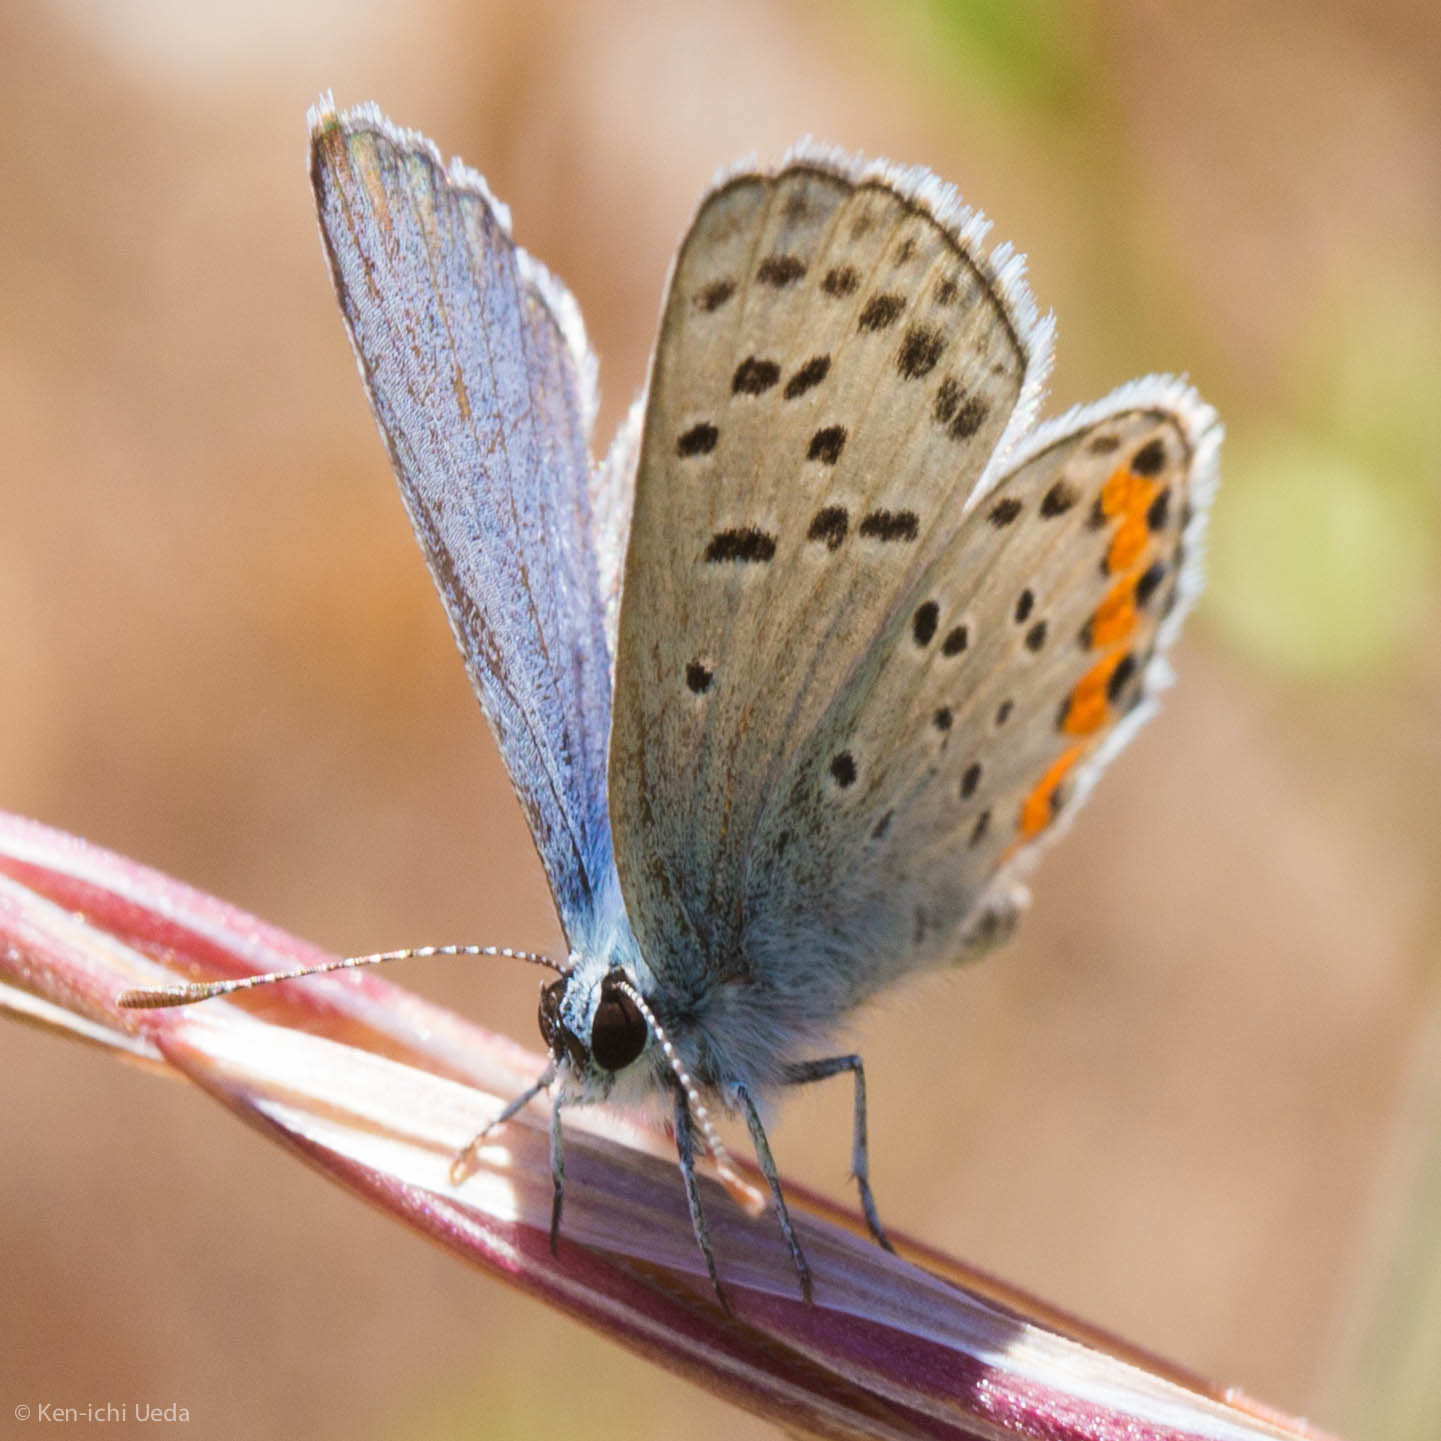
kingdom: Animalia
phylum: Arthropoda
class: Insecta
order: Lepidoptera
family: Lycaenidae
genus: Icaricia
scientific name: Icaricia acmon
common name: Acmon blue
